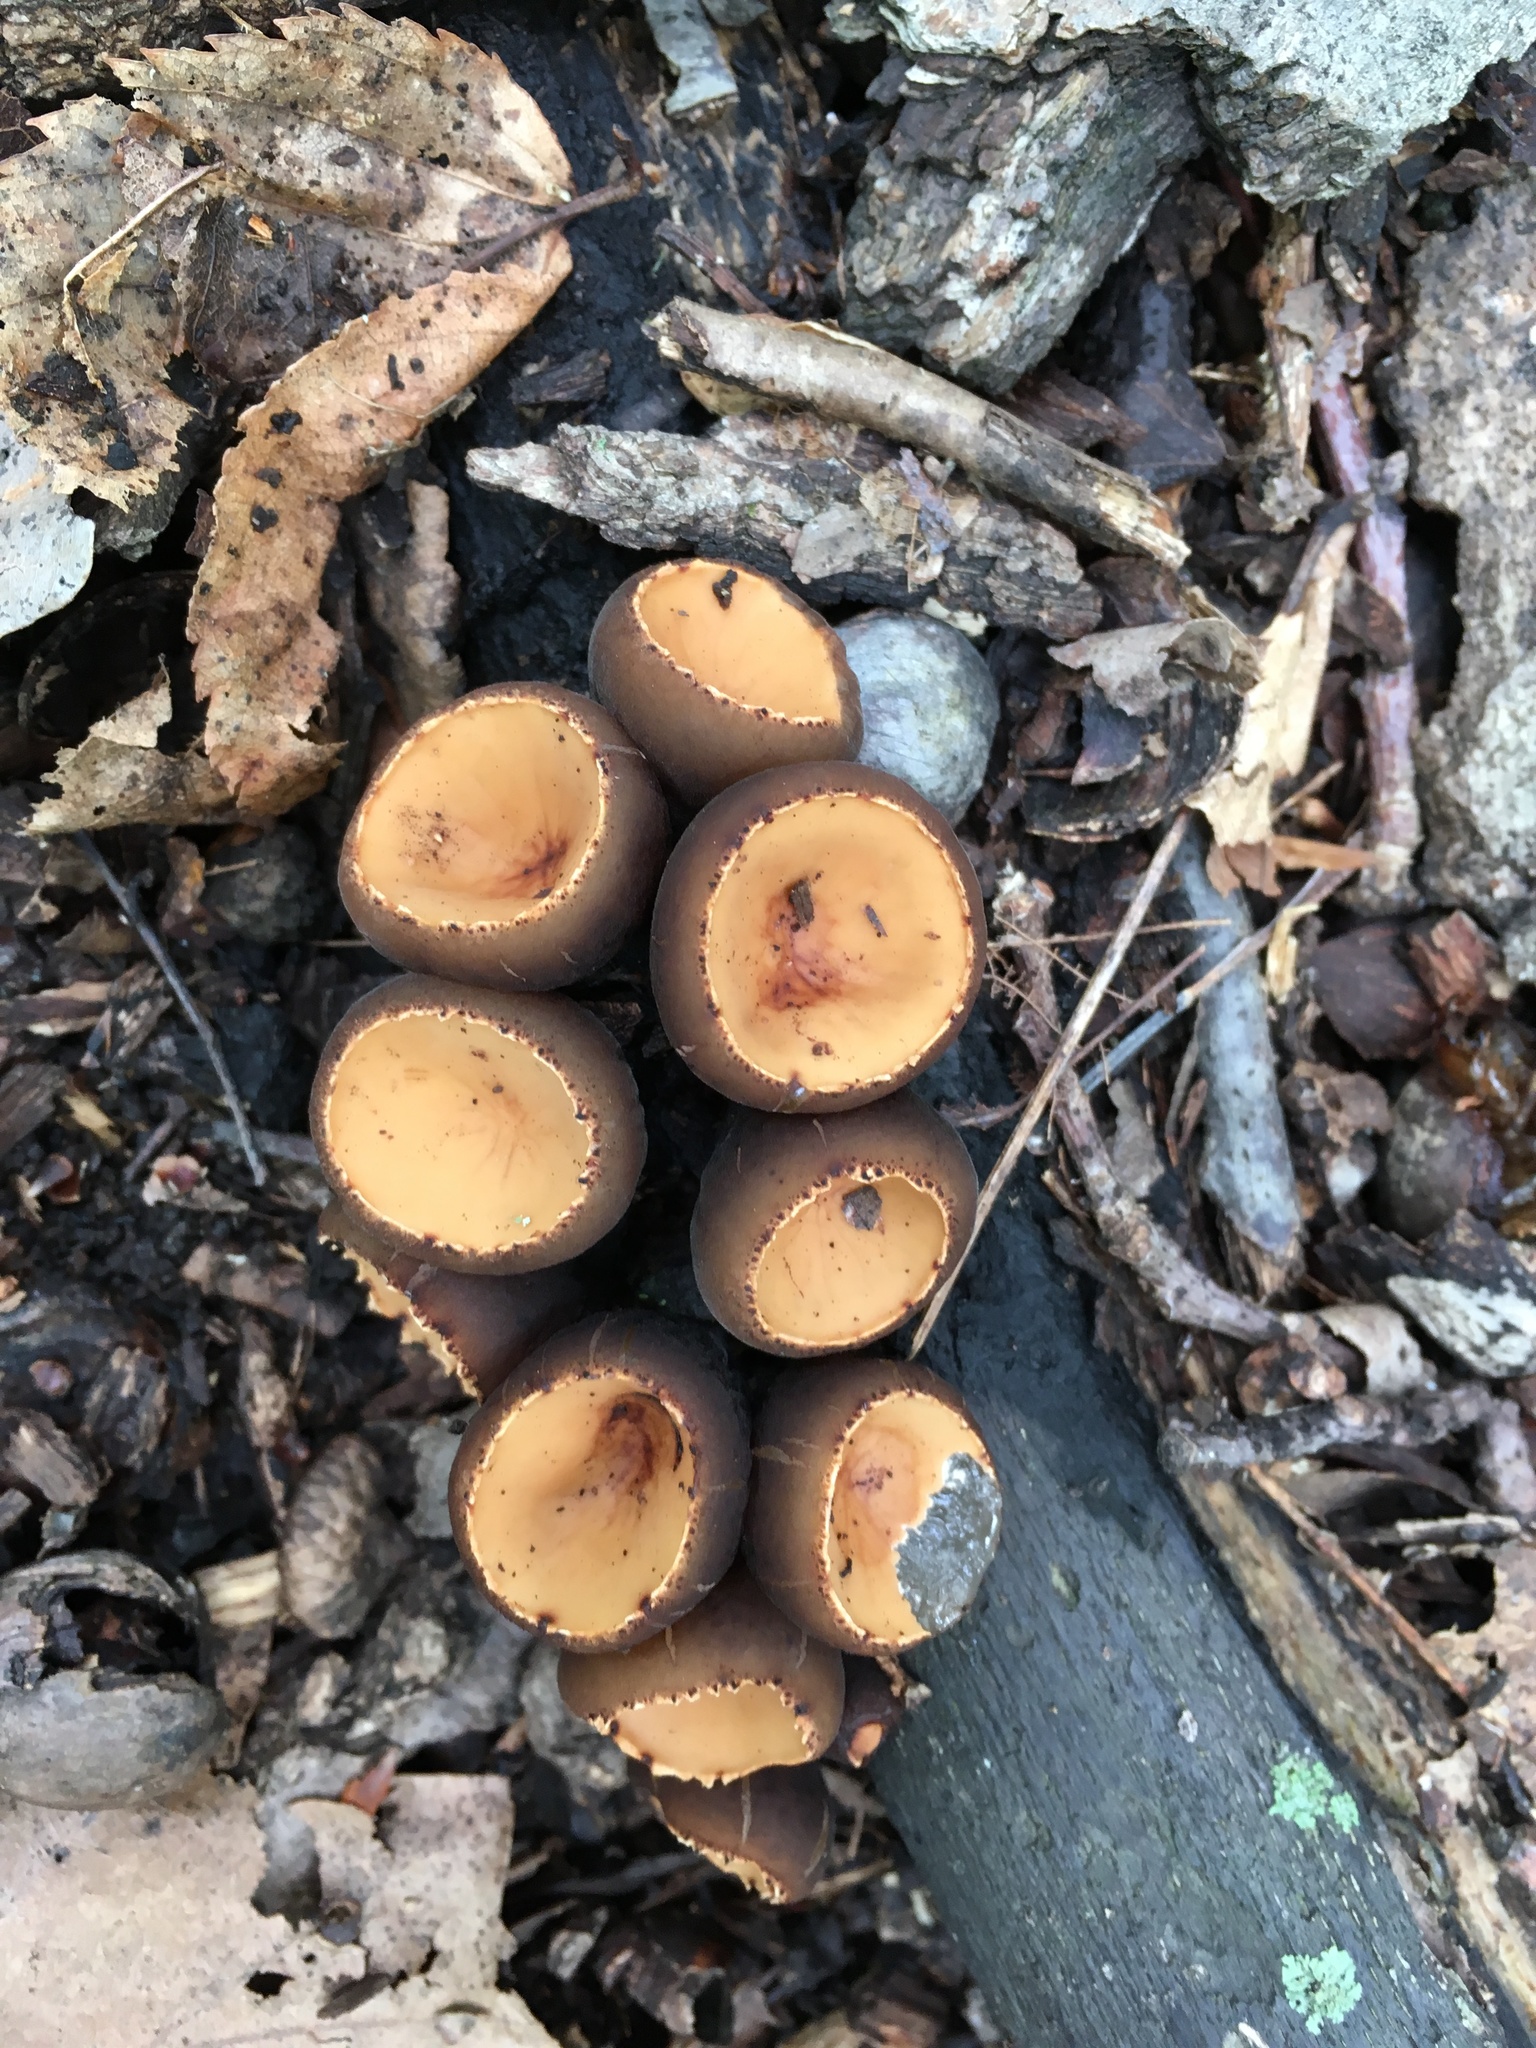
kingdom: Fungi
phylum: Ascomycota
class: Pezizomycetes
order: Pezizales
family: Sarcosomataceae
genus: Galiella
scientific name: Galiella rufa
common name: Hairy rubber cup
